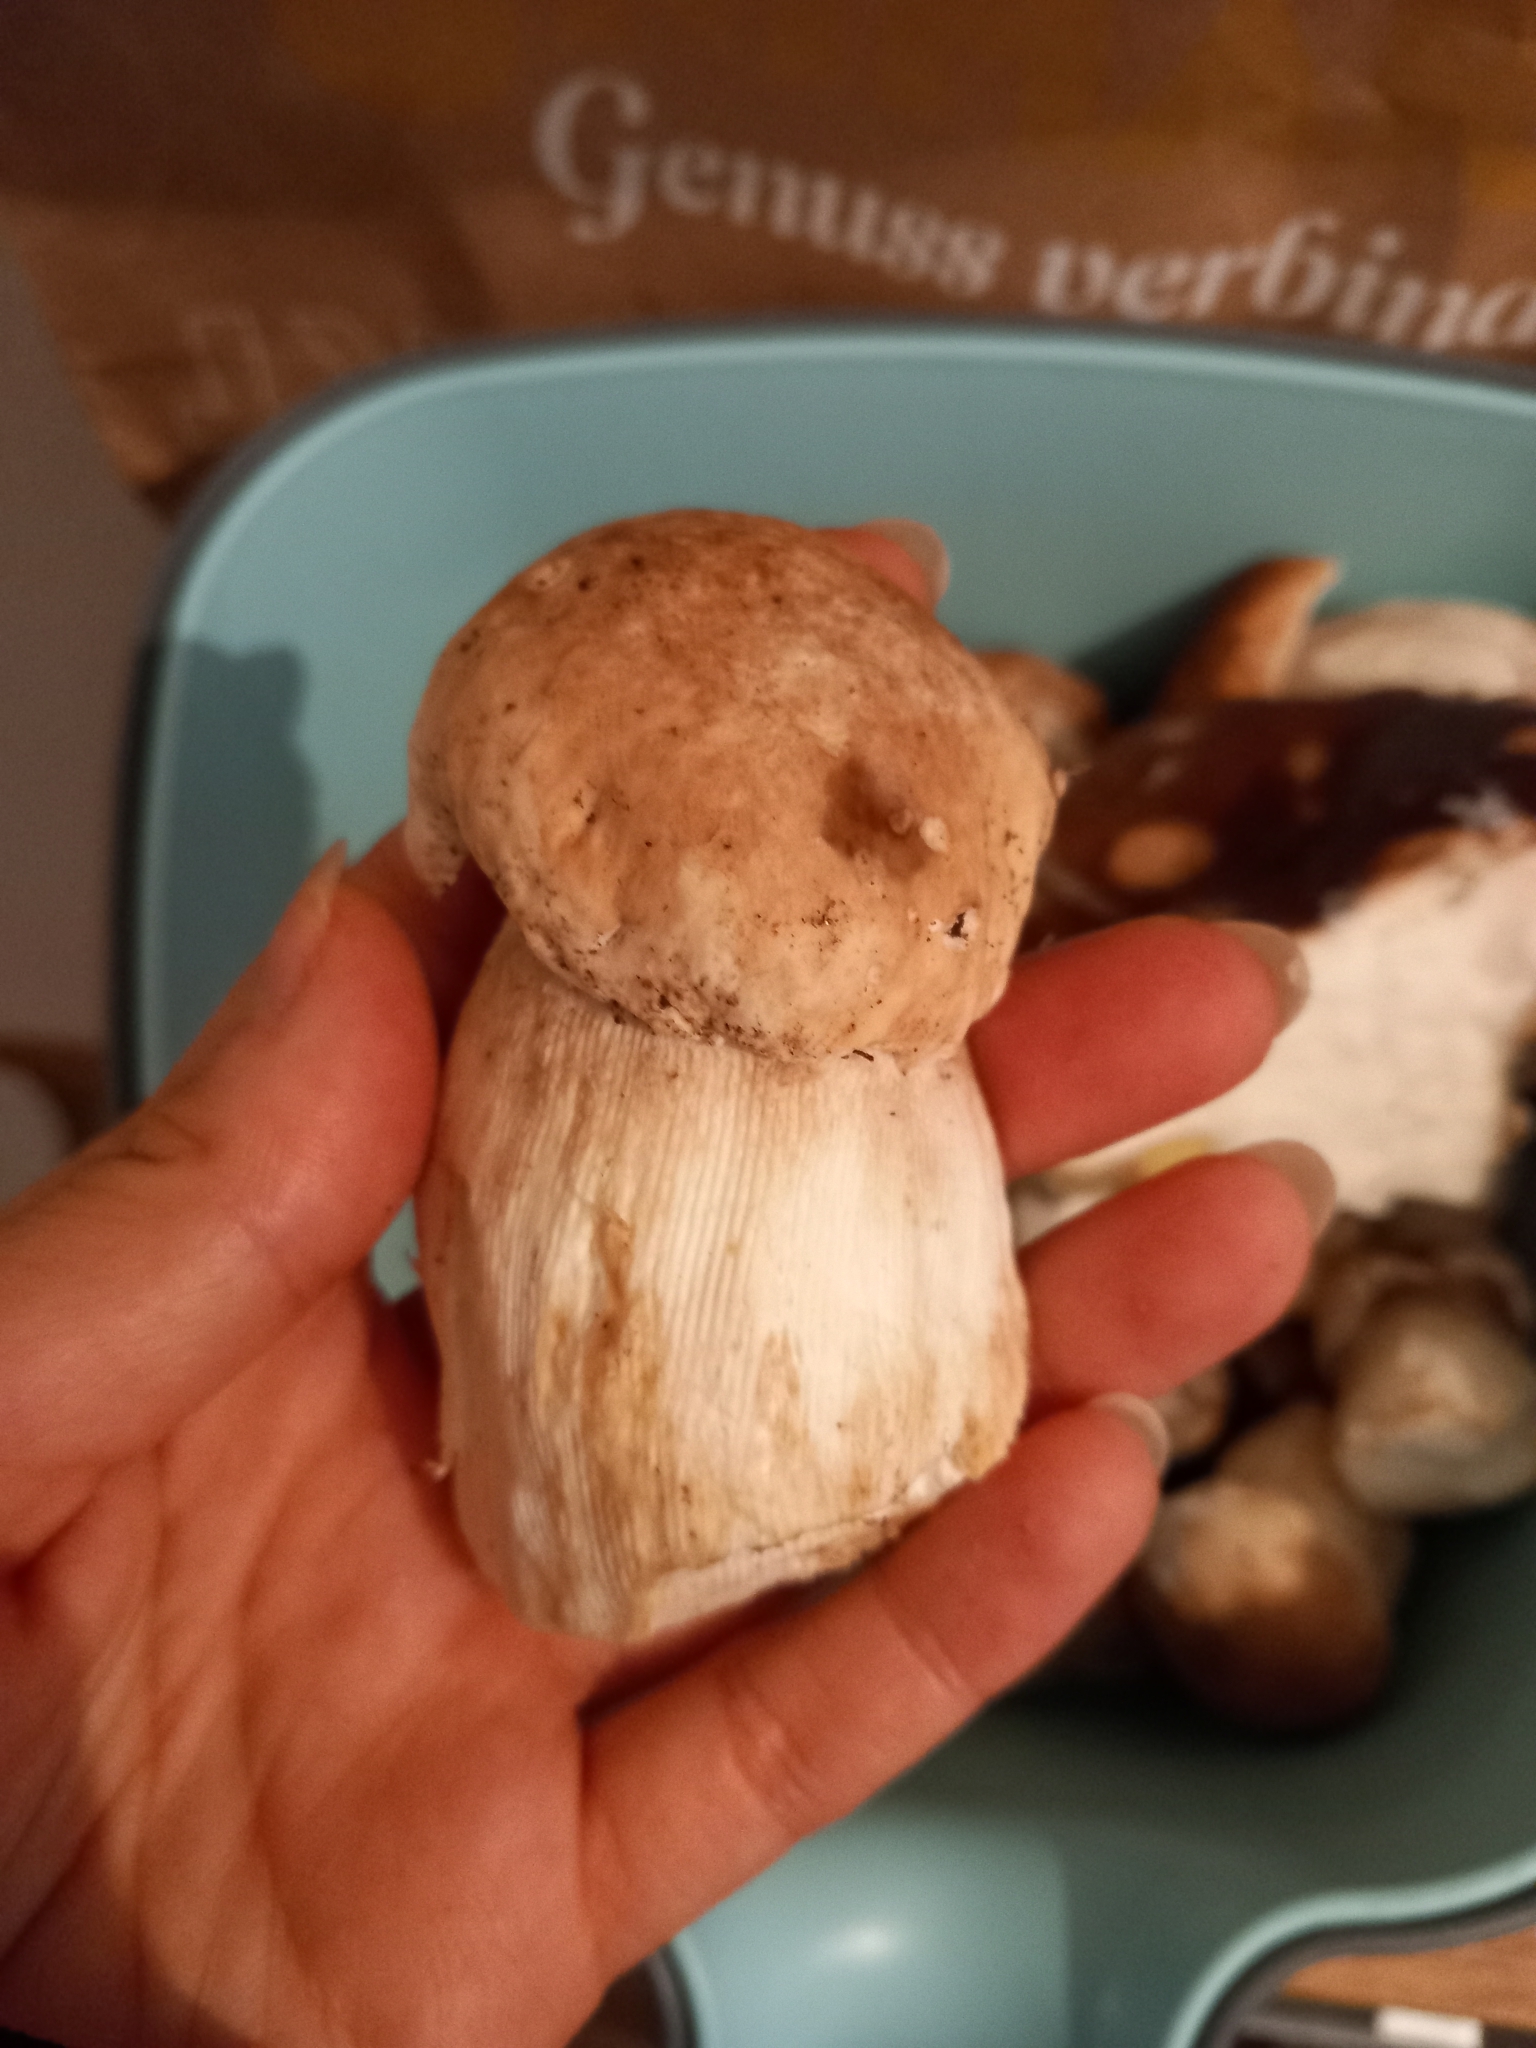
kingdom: Fungi
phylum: Basidiomycota
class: Agaricomycetes
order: Boletales
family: Boletaceae
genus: Boletus
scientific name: Boletus edulis
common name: Cep
